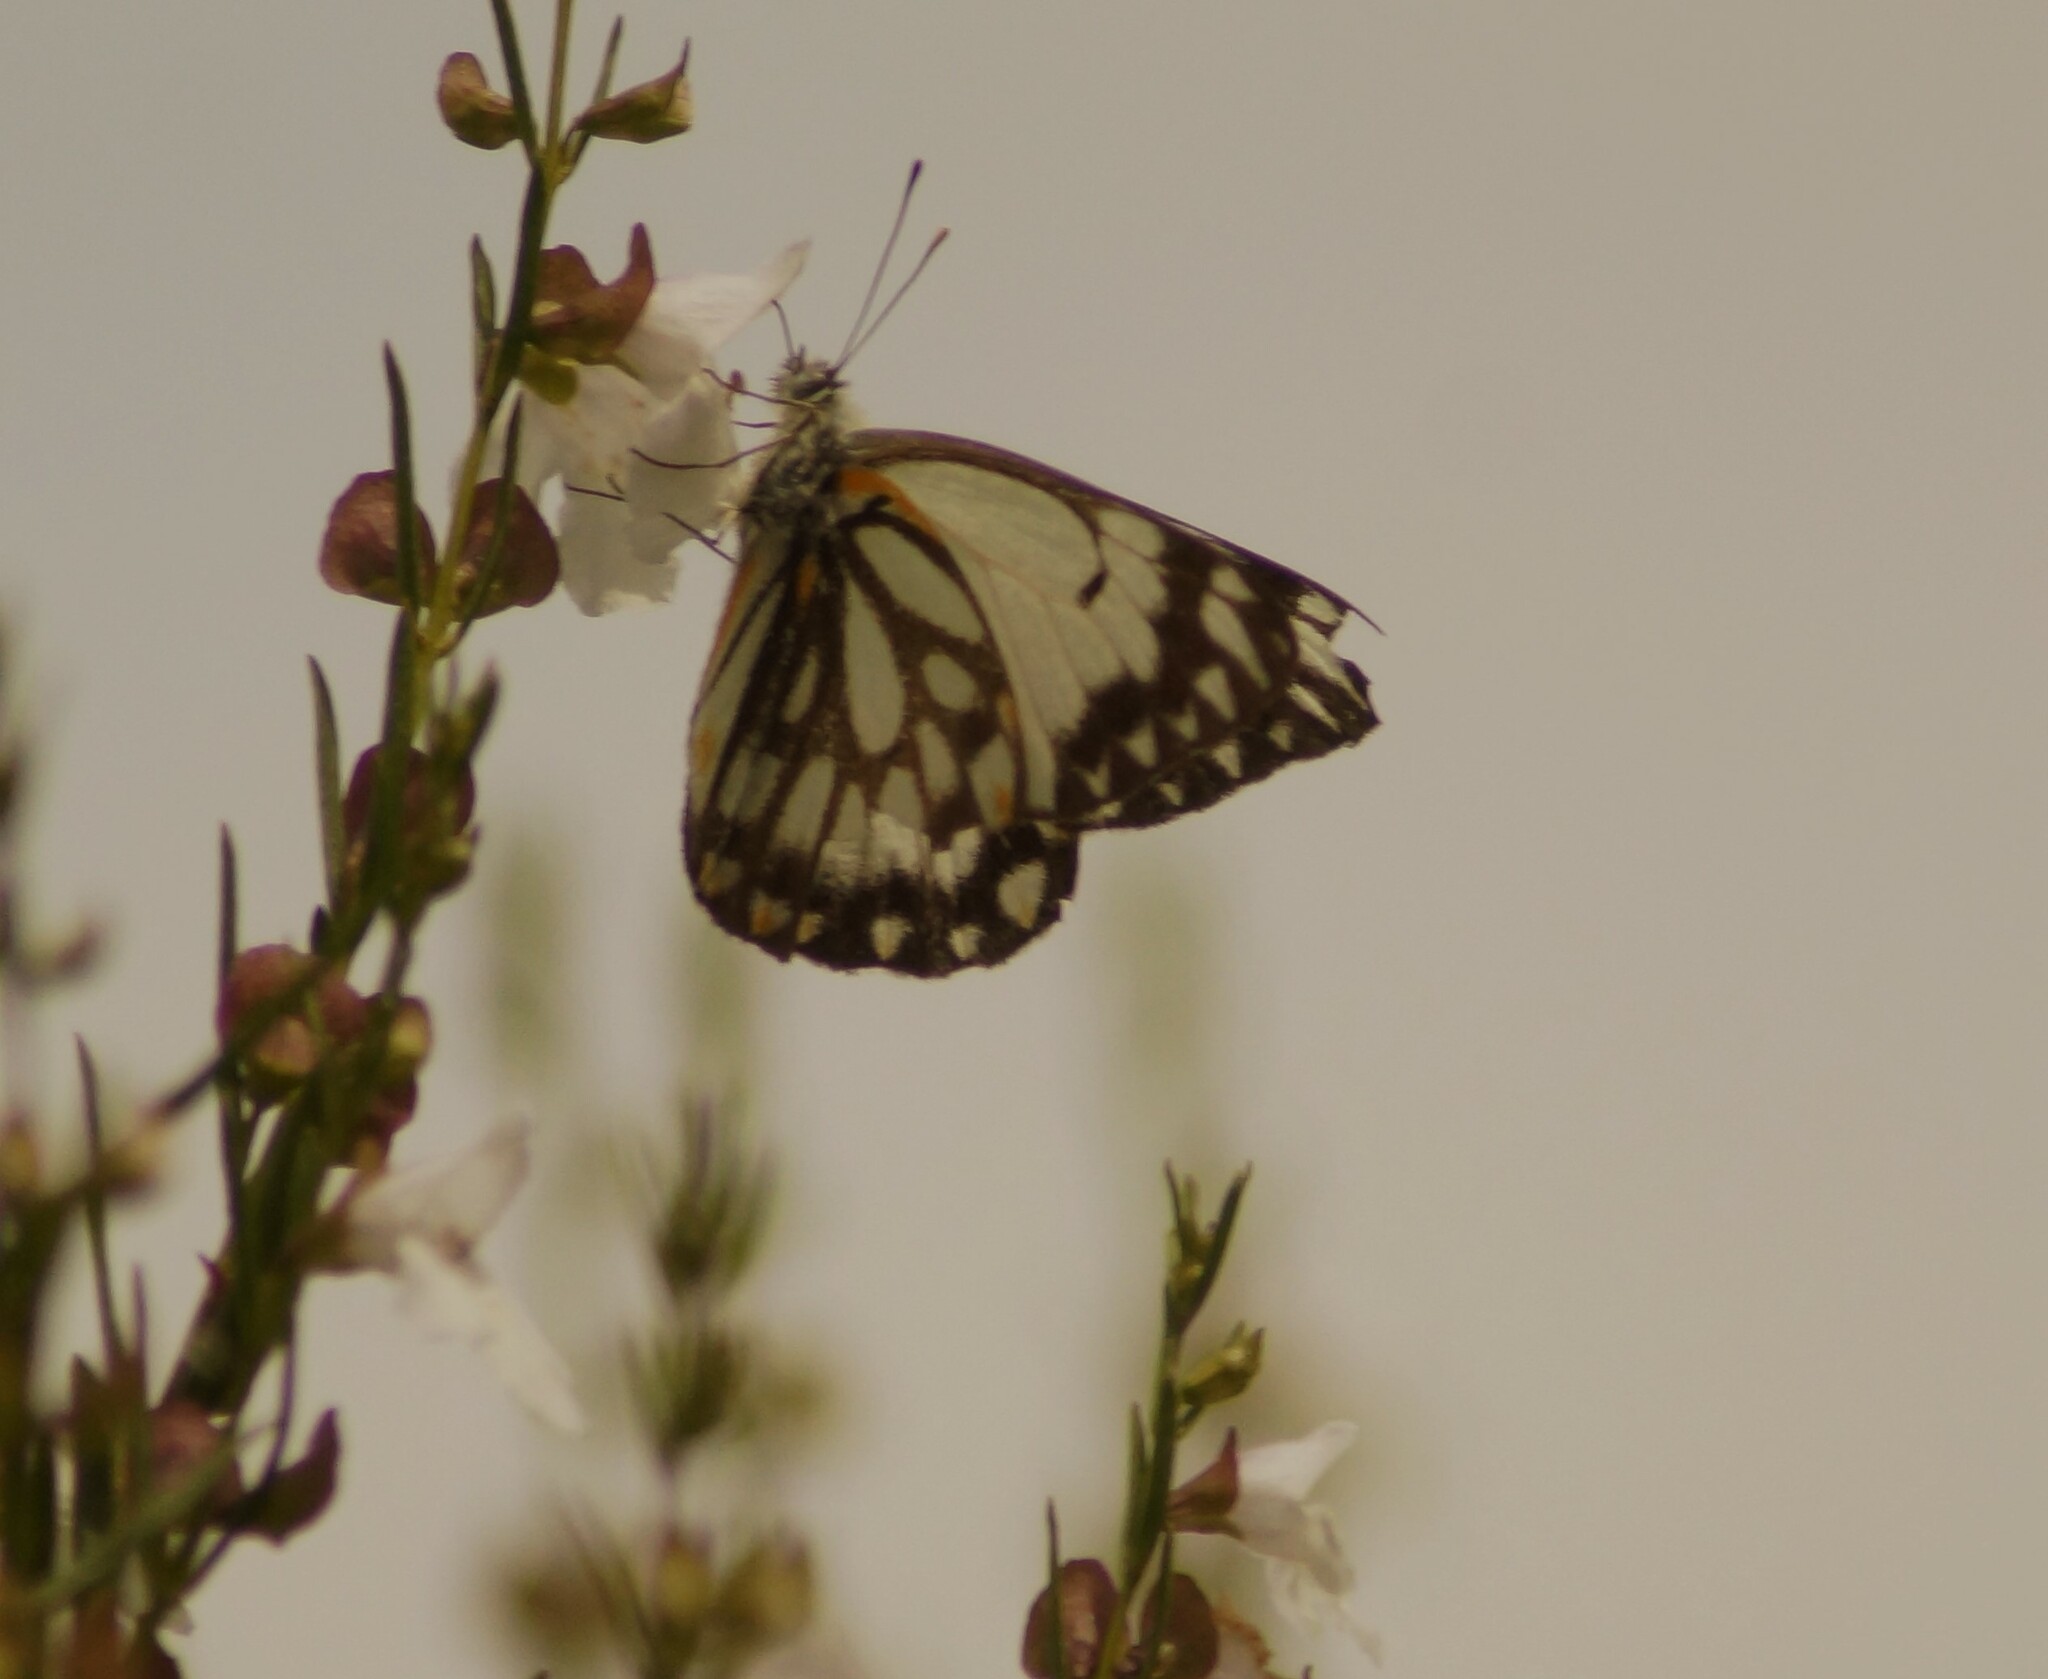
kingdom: Animalia
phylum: Arthropoda
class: Insecta
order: Lepidoptera
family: Pieridae
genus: Belenois
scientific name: Belenois java
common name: Caper white
